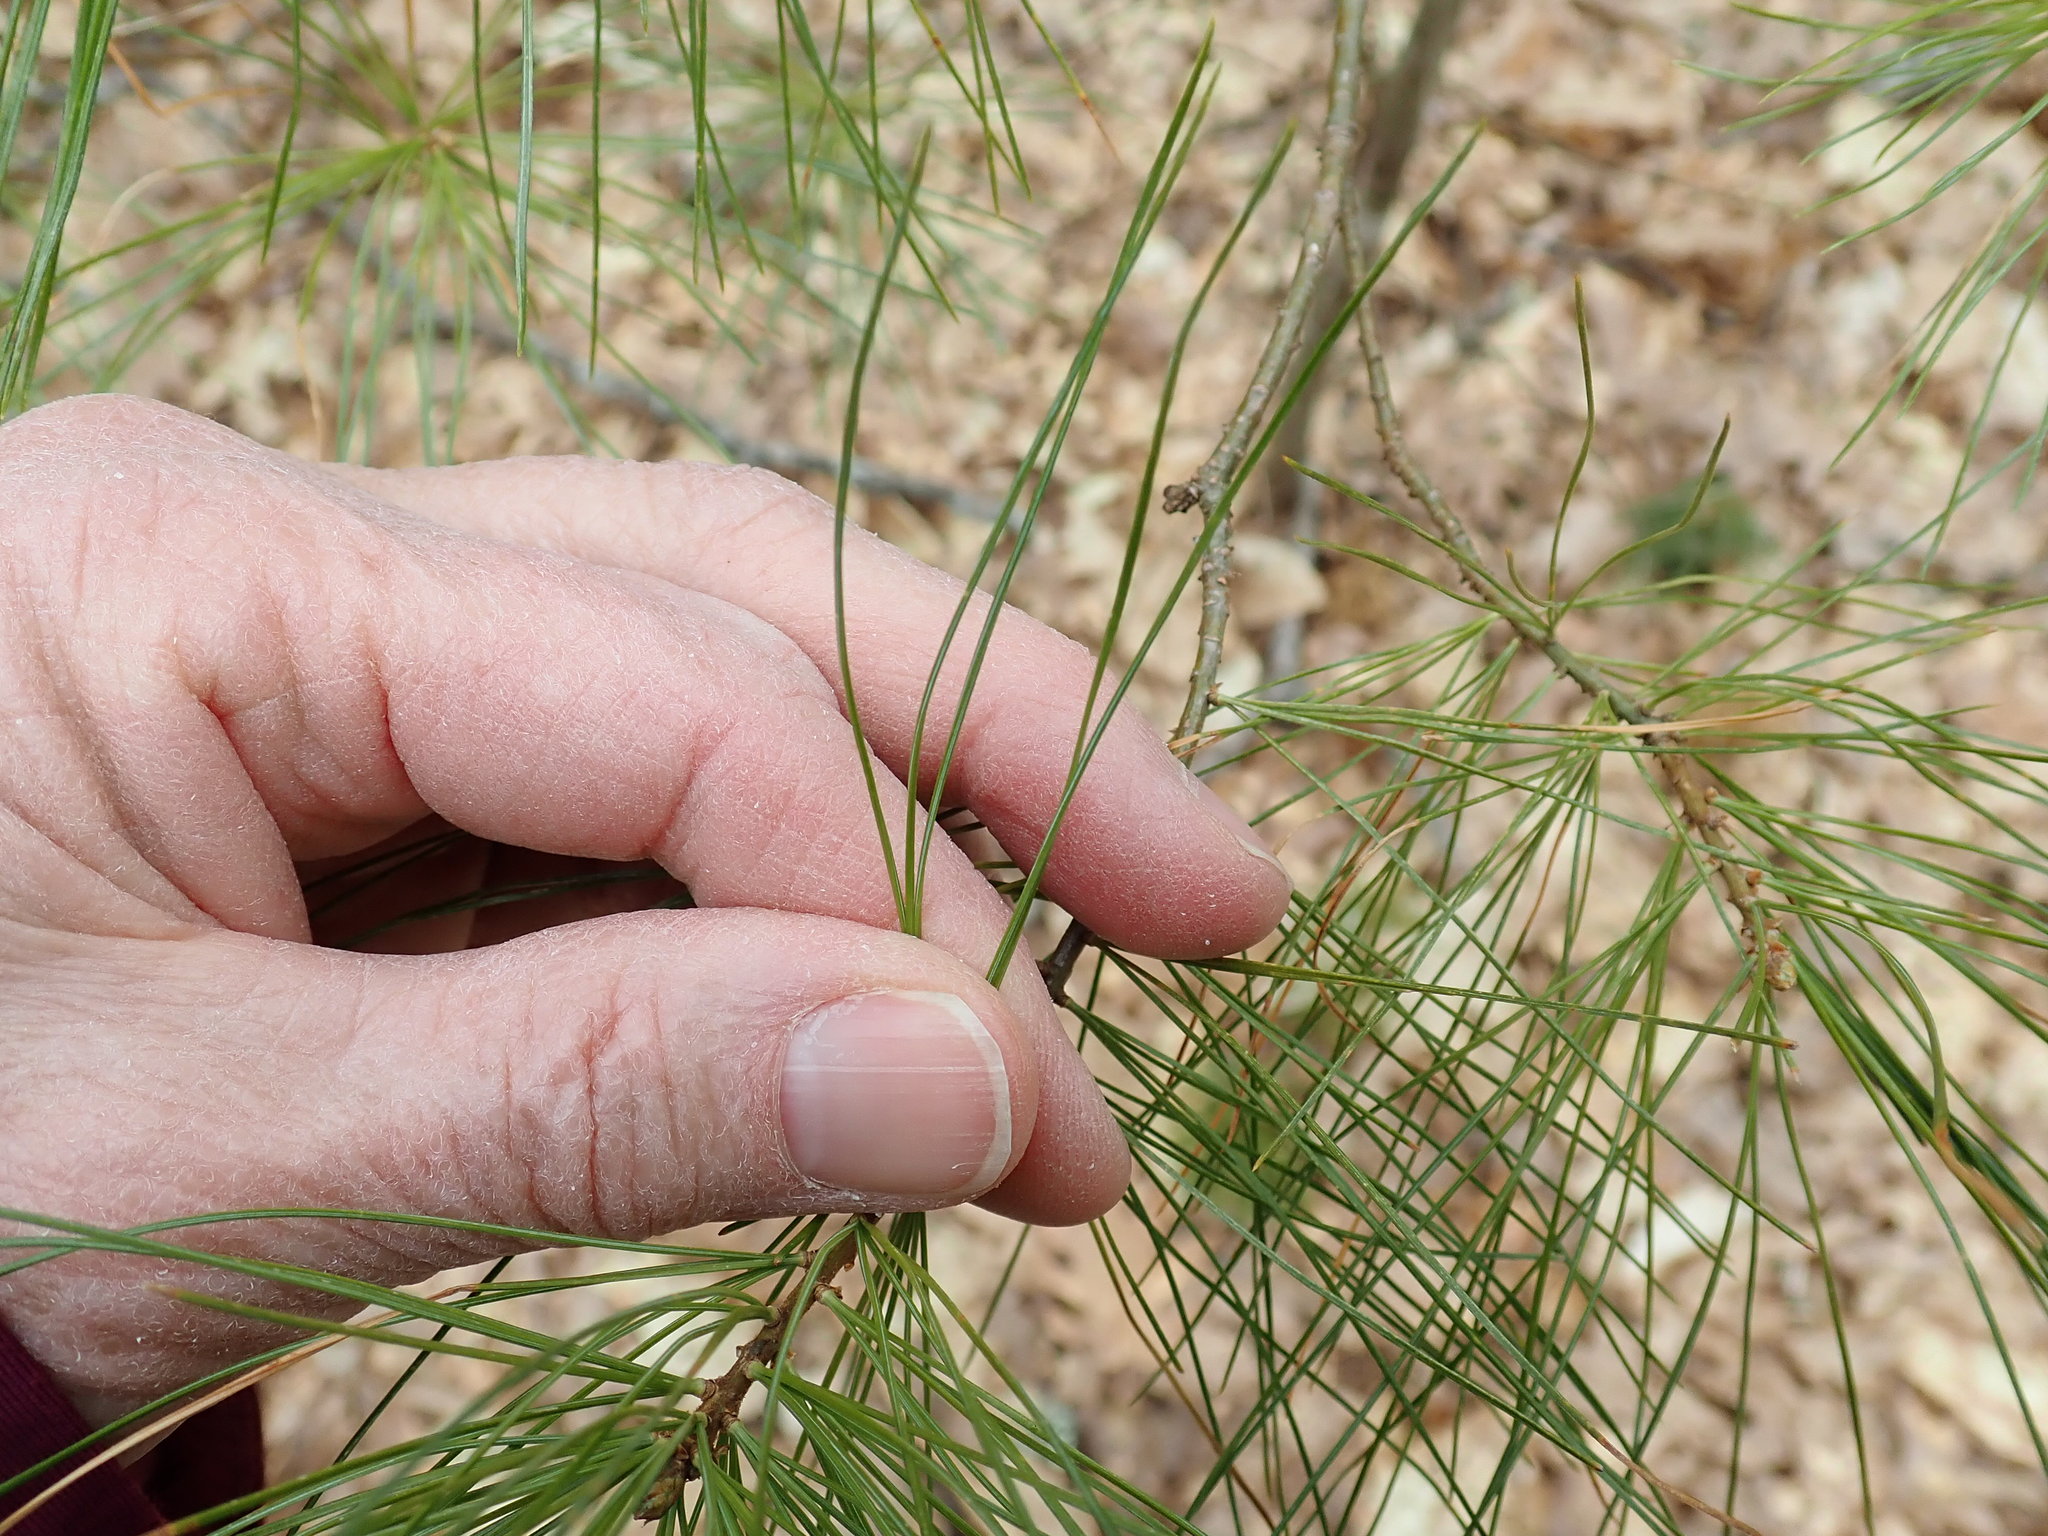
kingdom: Plantae
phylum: Tracheophyta
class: Pinopsida
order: Pinales
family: Pinaceae
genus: Pinus
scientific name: Pinus strobus
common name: Weymouth pine
